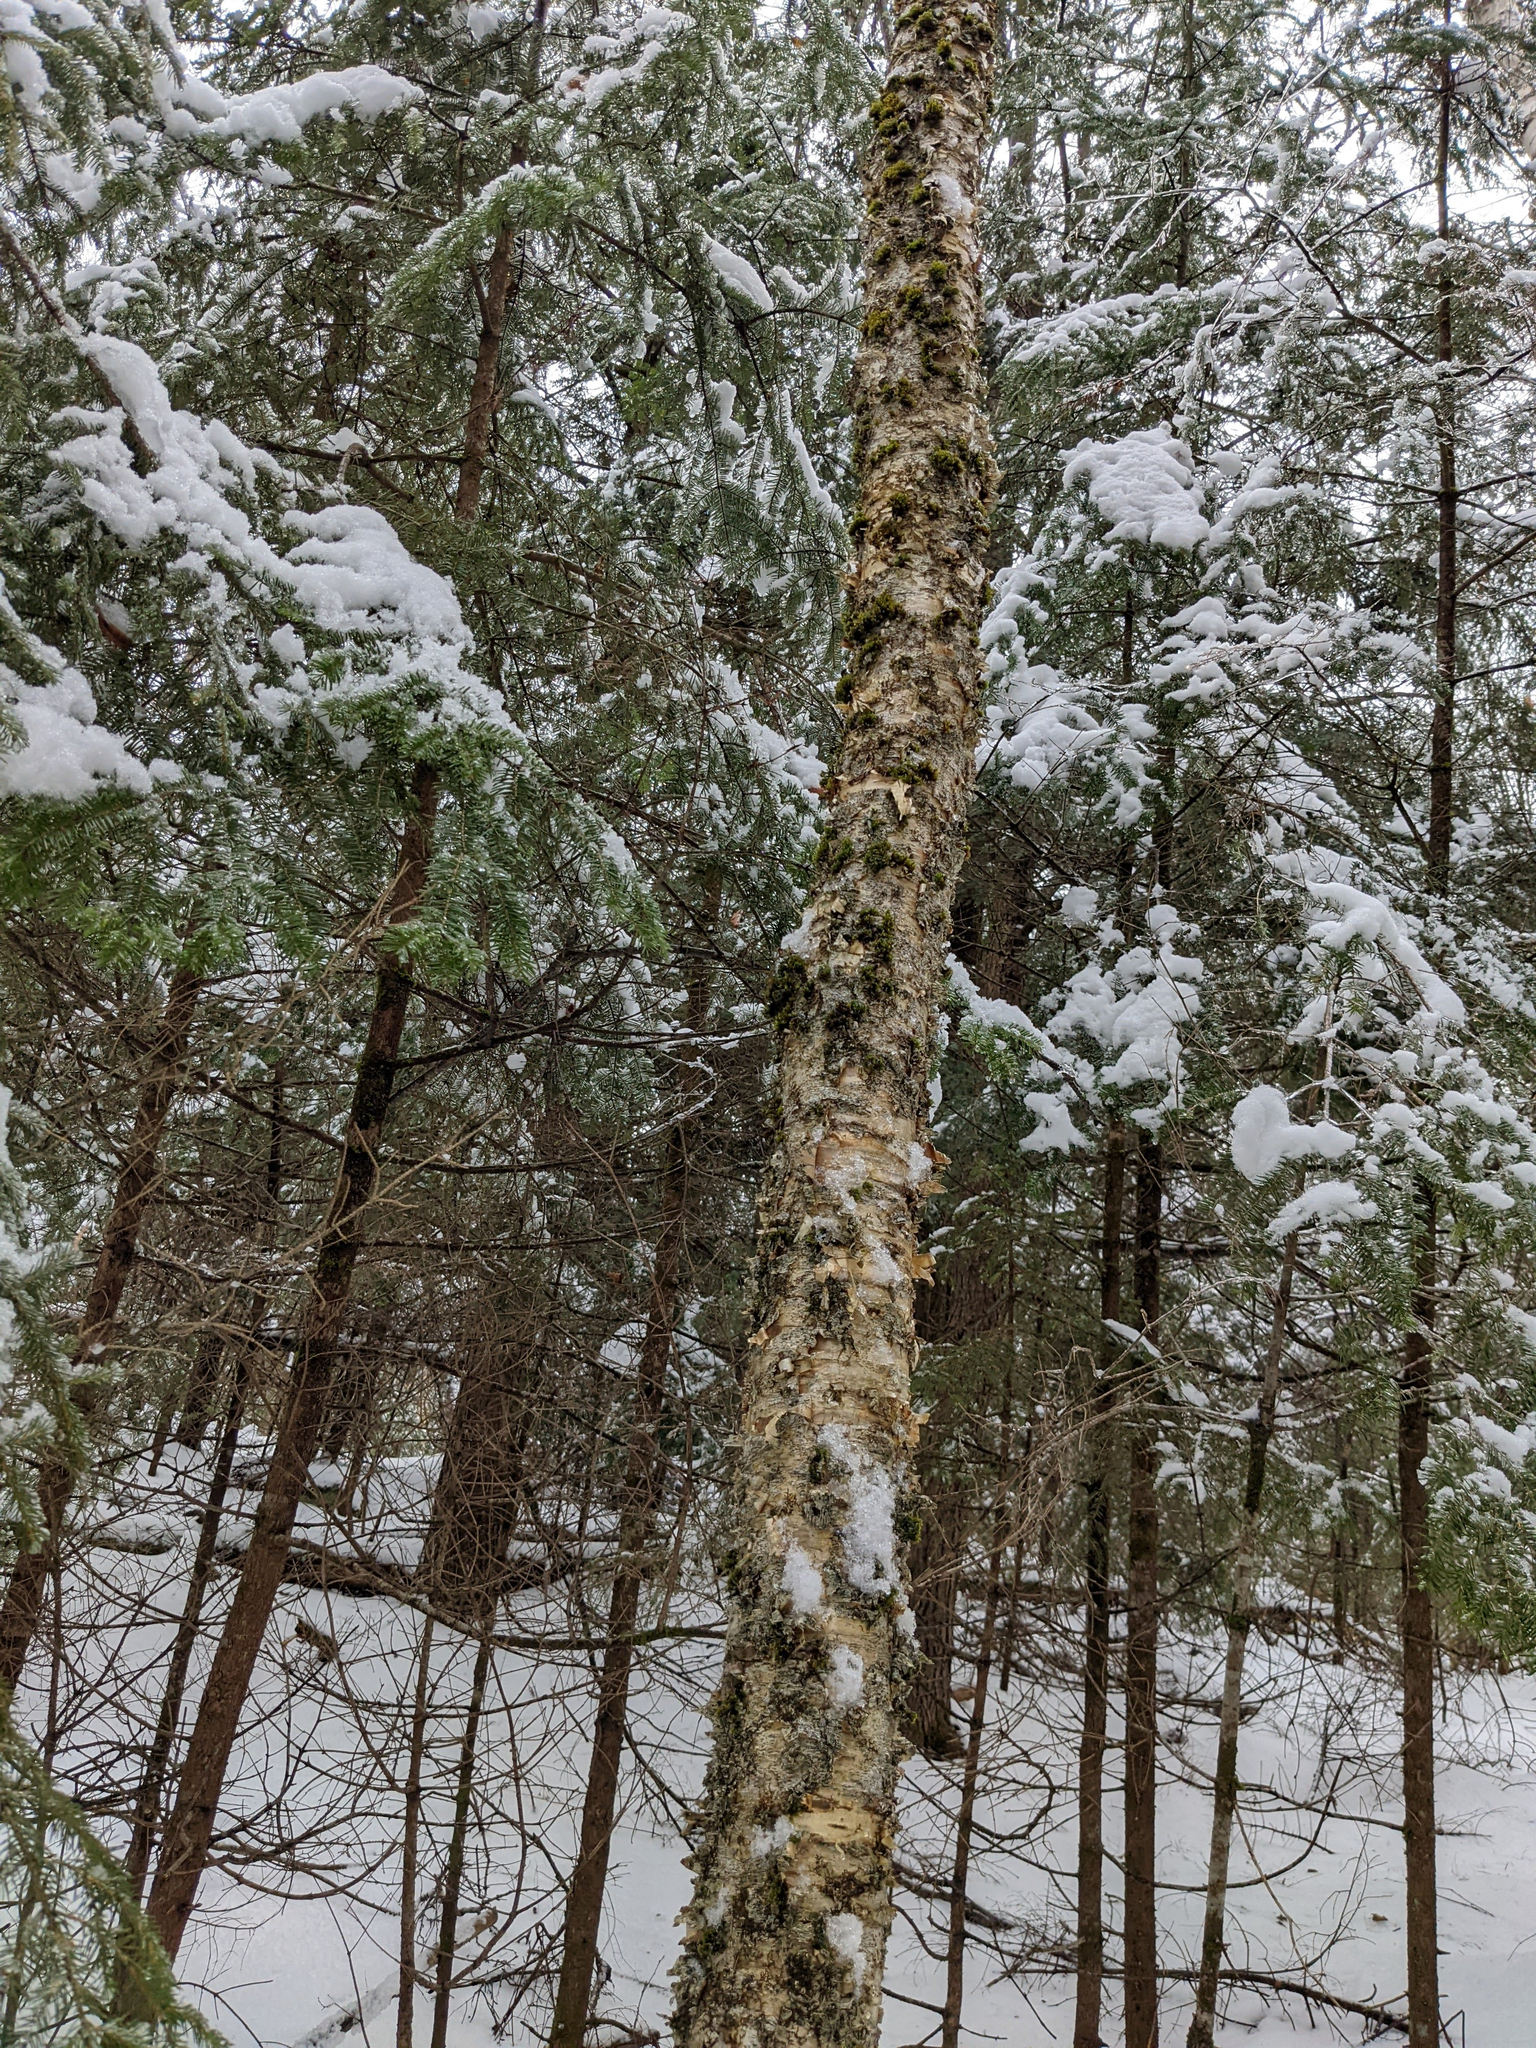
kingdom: Plantae
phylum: Tracheophyta
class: Magnoliopsida
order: Fagales
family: Betulaceae
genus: Betula
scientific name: Betula alleghaniensis
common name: Yellow birch
